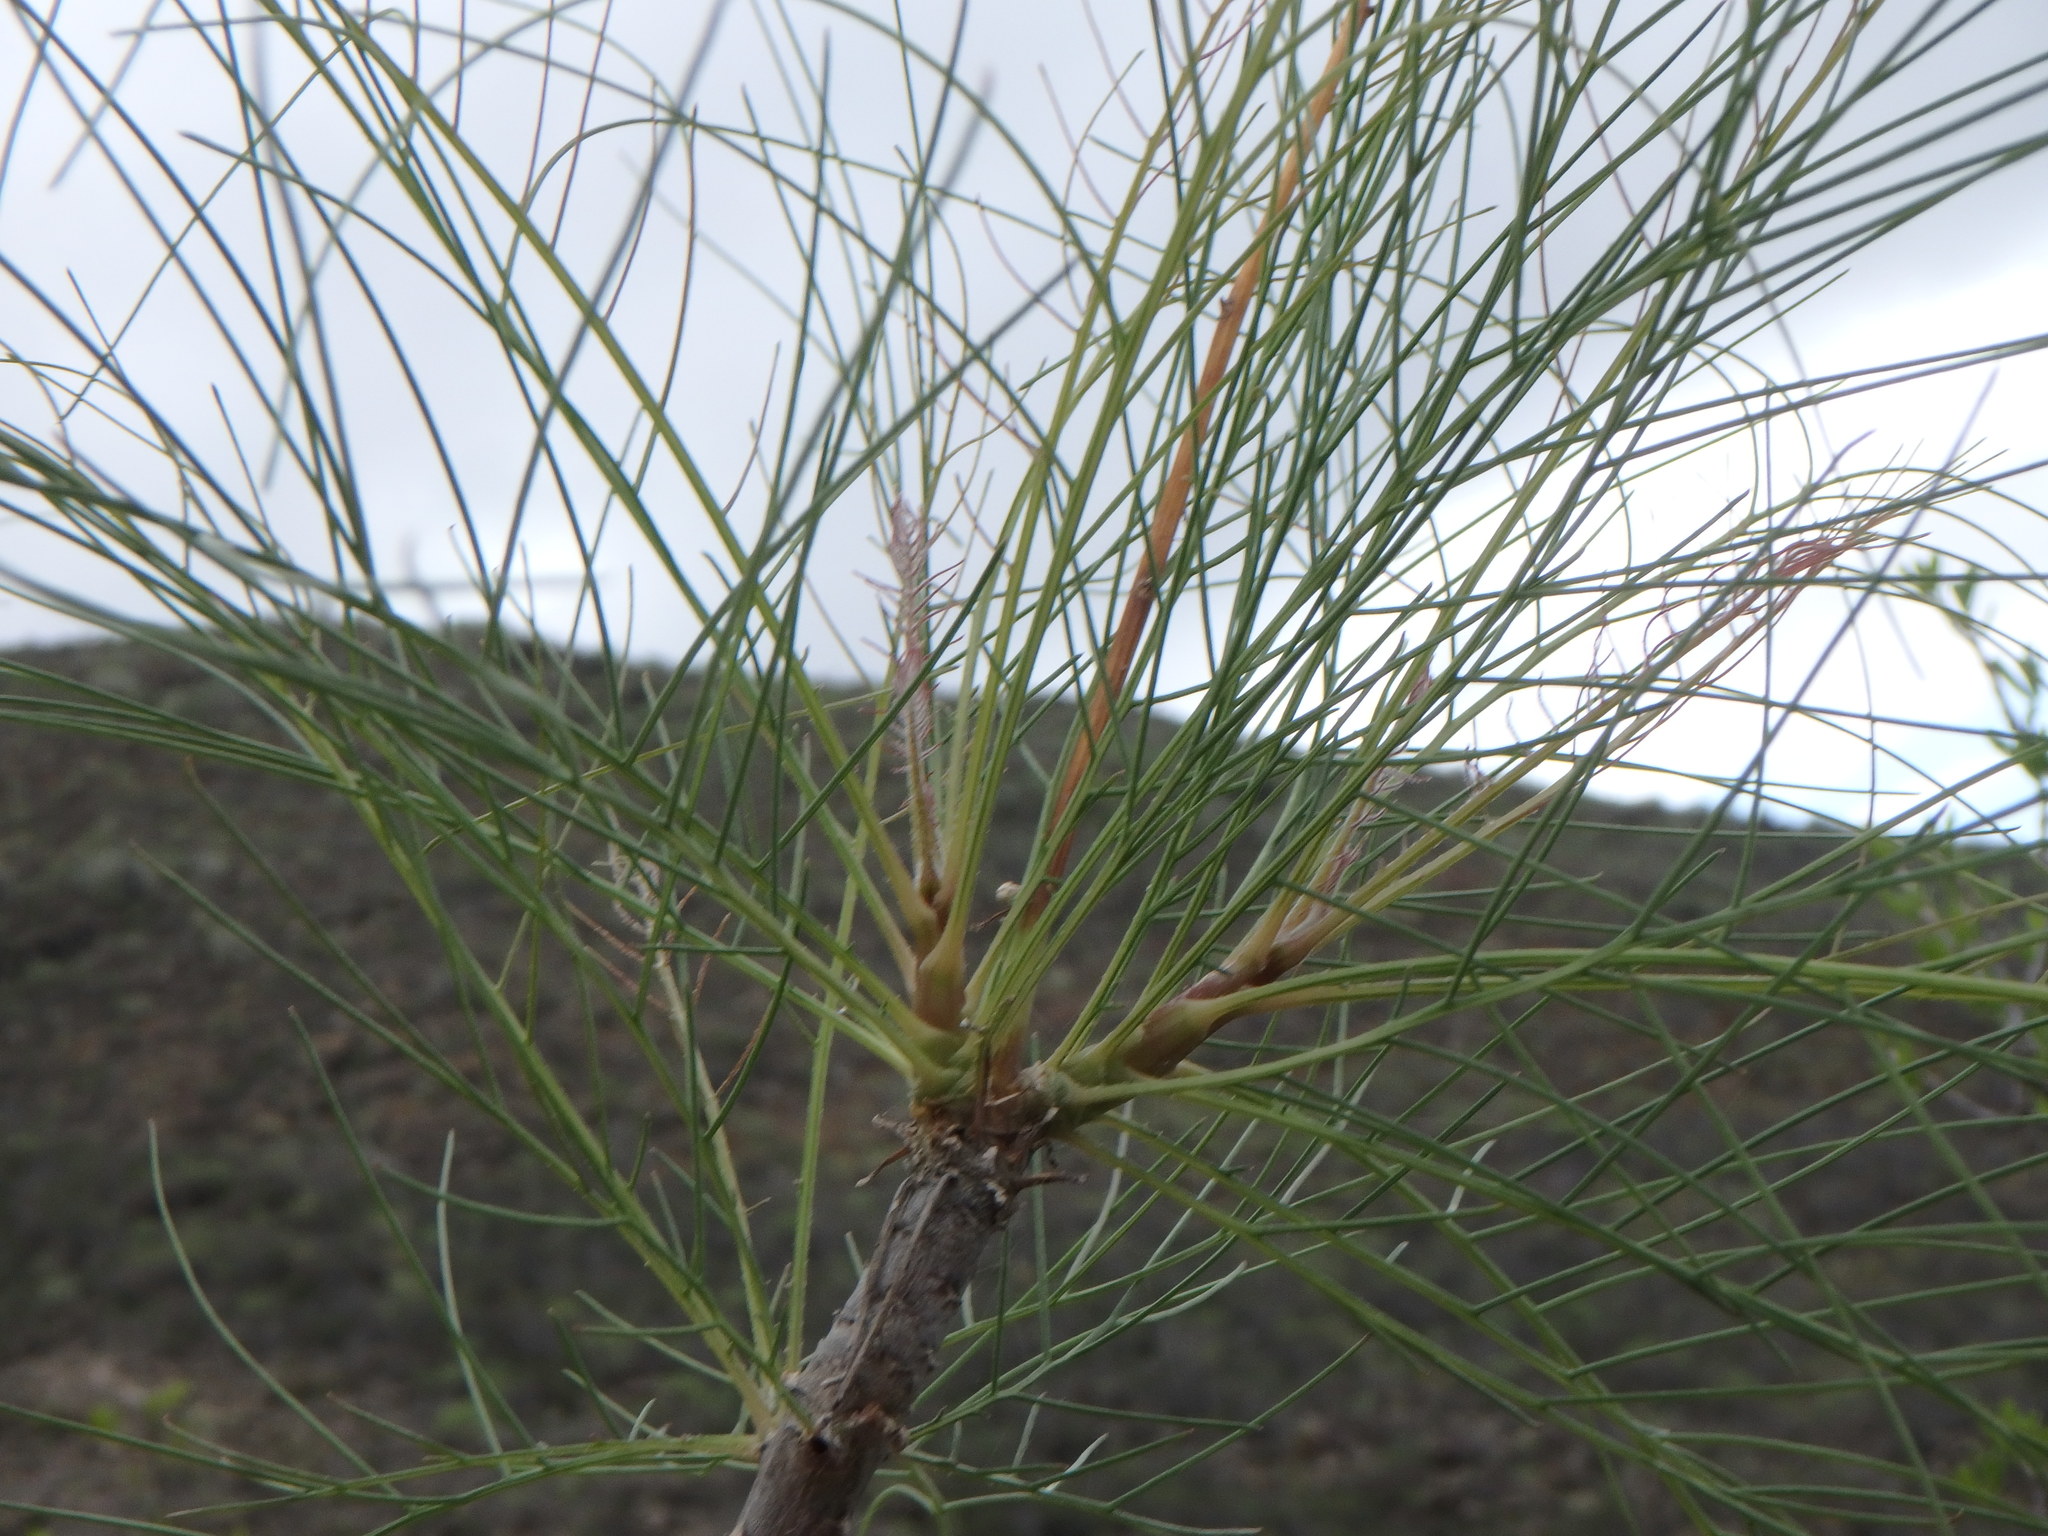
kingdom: Plantae
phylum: Tracheophyta
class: Magnoliopsida
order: Asterales
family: Asteraceae
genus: Sonchus
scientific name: Sonchus capillaris
